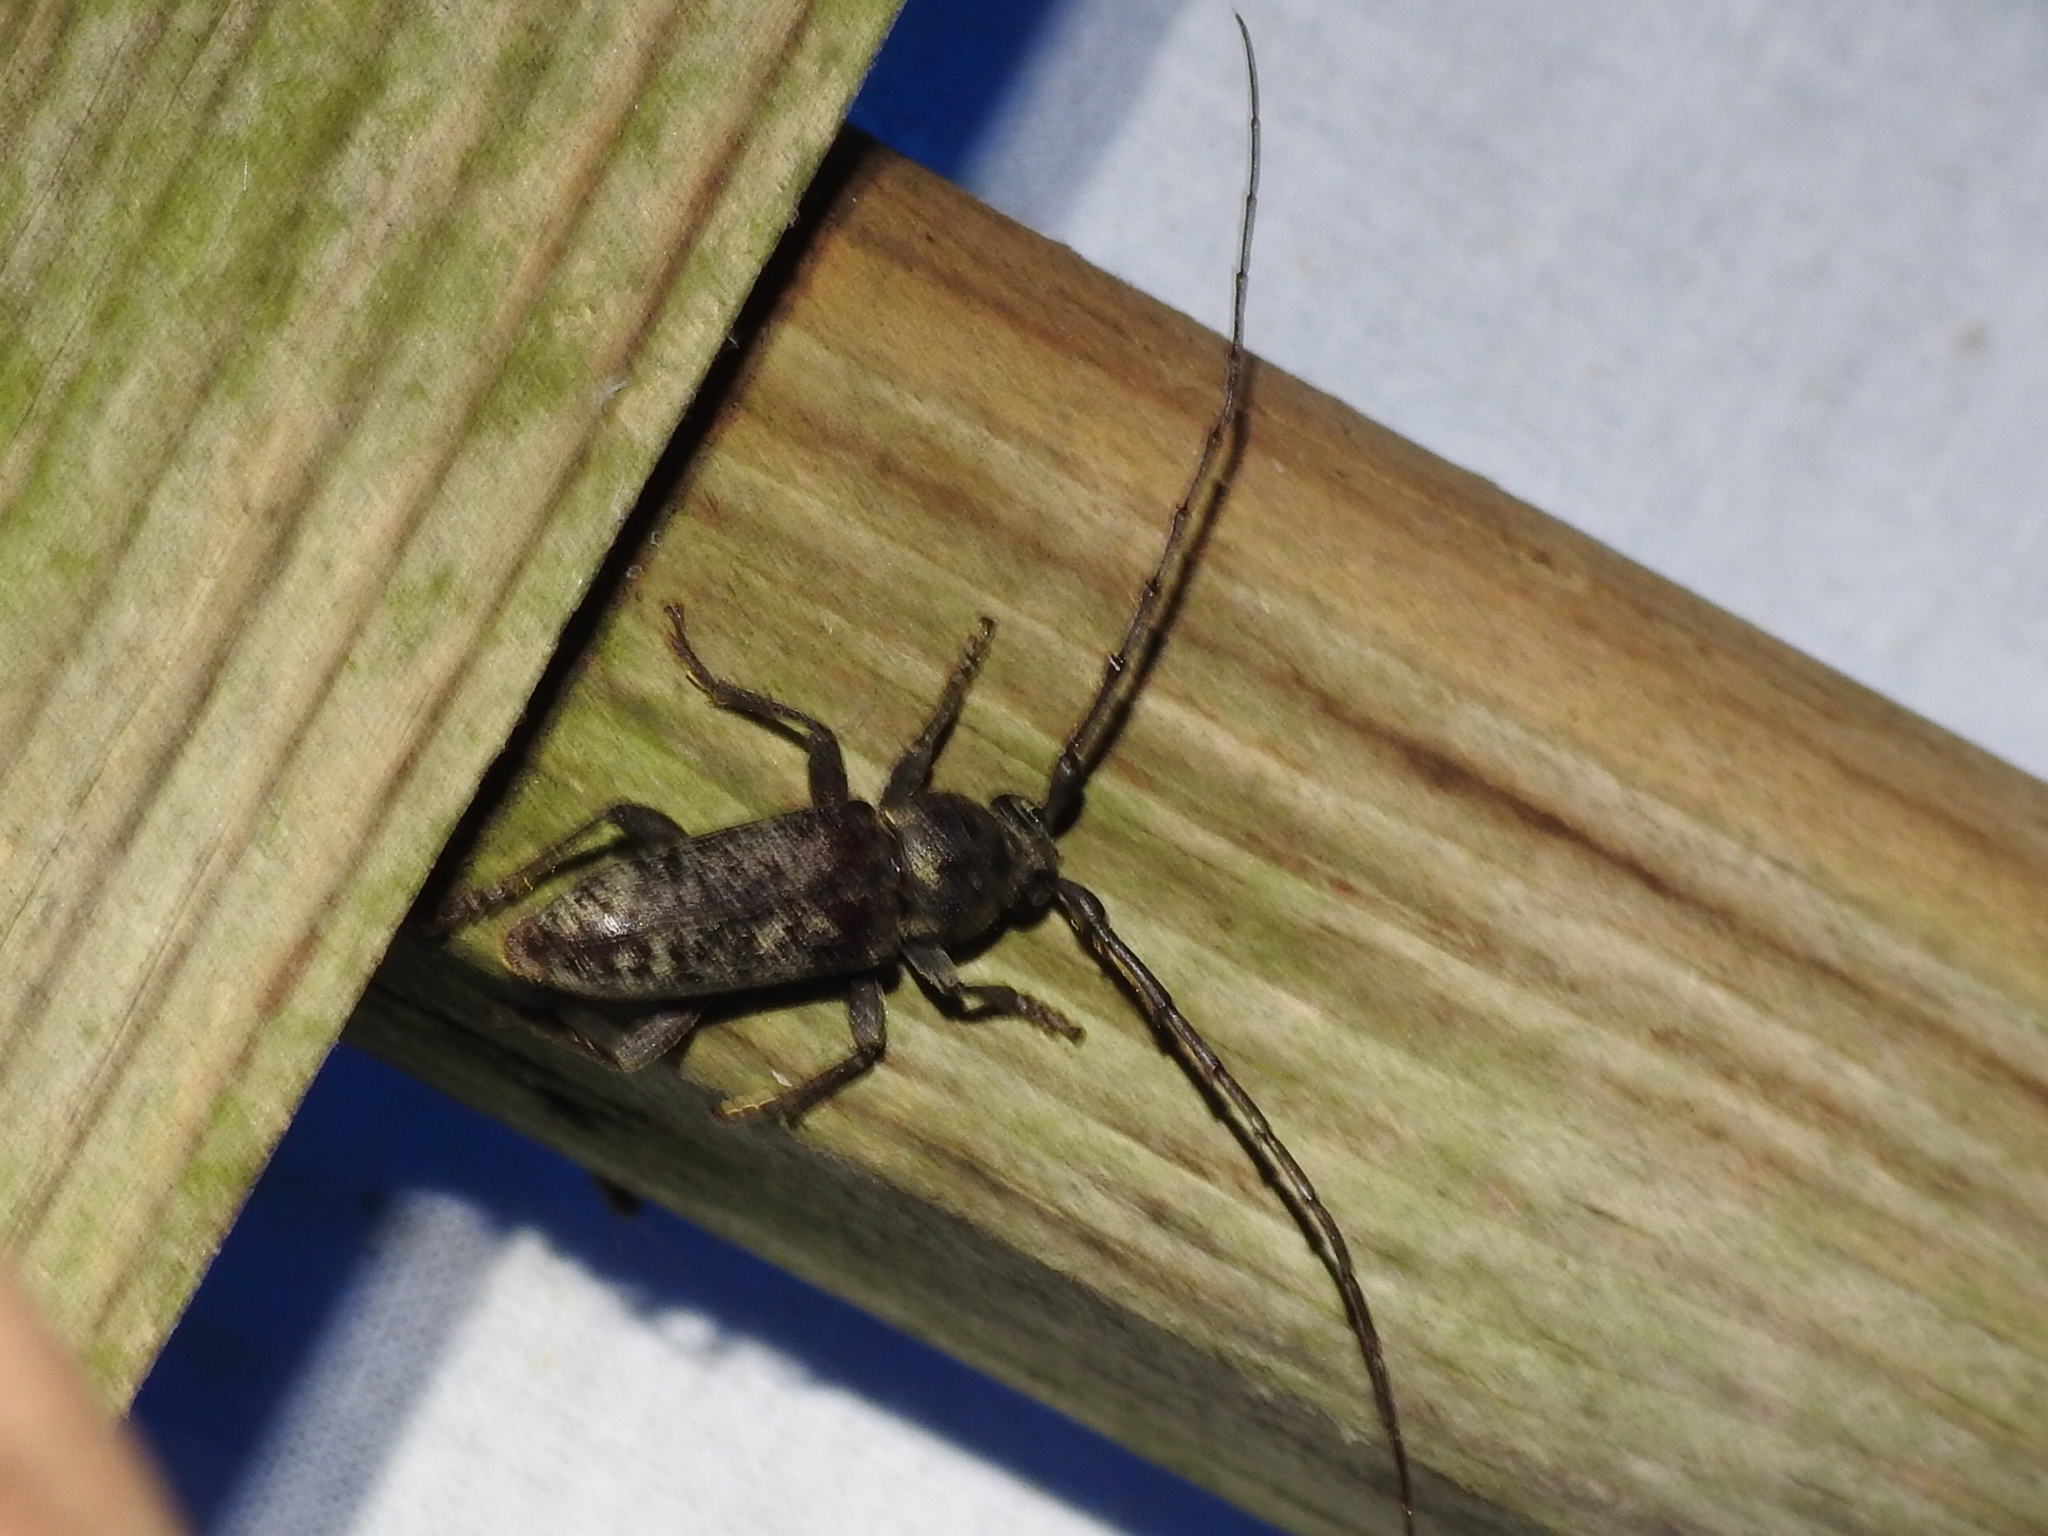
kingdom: Animalia
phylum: Arthropoda
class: Insecta
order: Coleoptera
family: Cerambycidae
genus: Enaphalodes
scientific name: Enaphalodes atomarius
